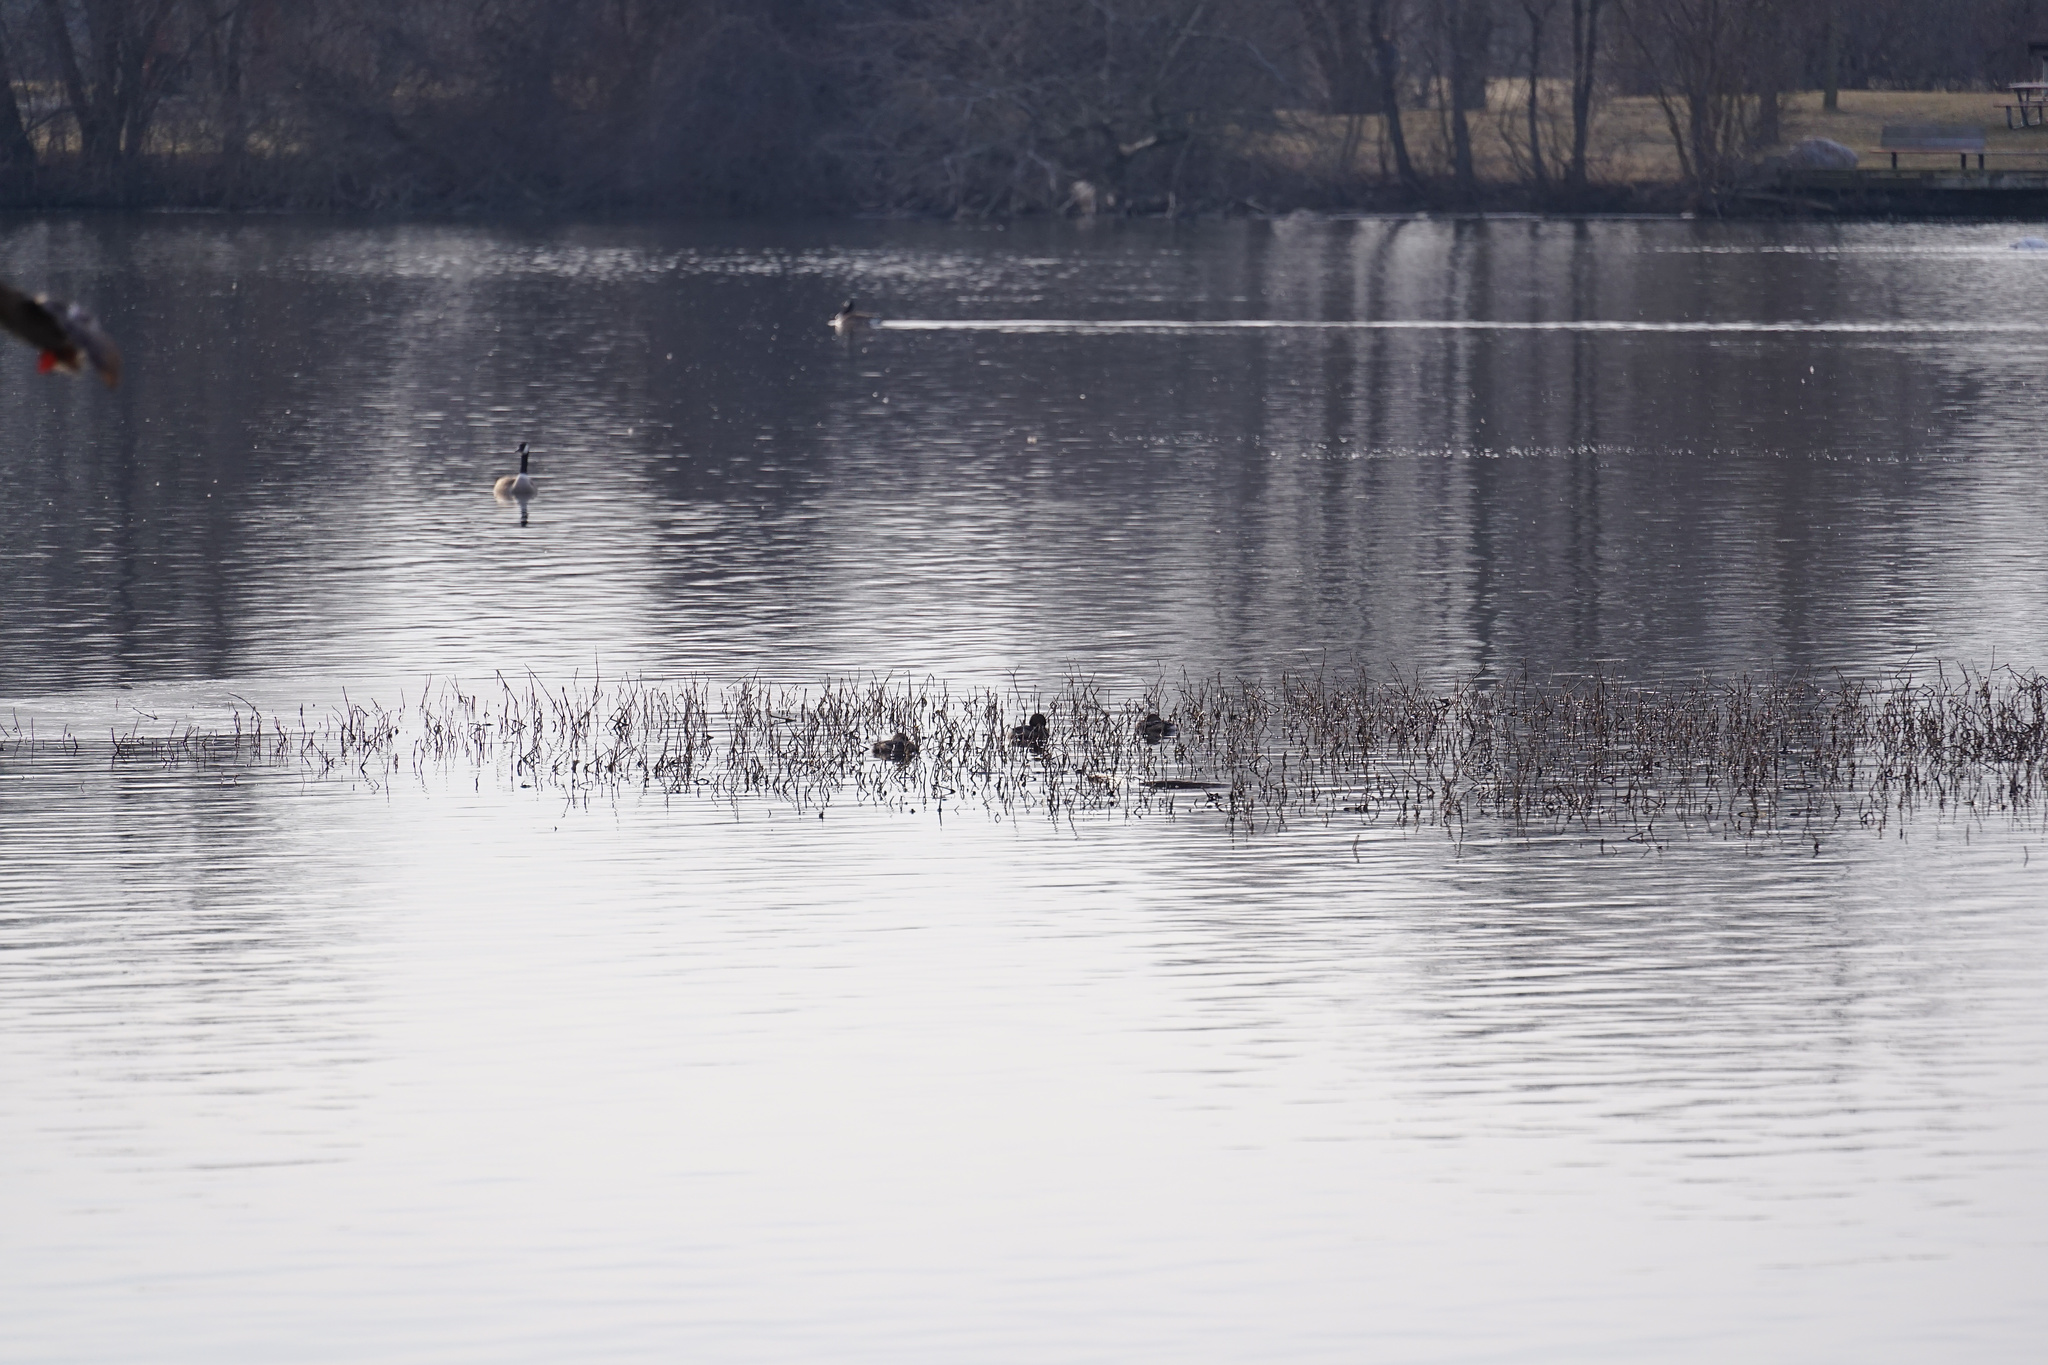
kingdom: Animalia
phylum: Chordata
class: Aves
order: Podicipediformes
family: Podicipedidae
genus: Podilymbus
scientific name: Podilymbus podiceps
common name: Pied-billed grebe
